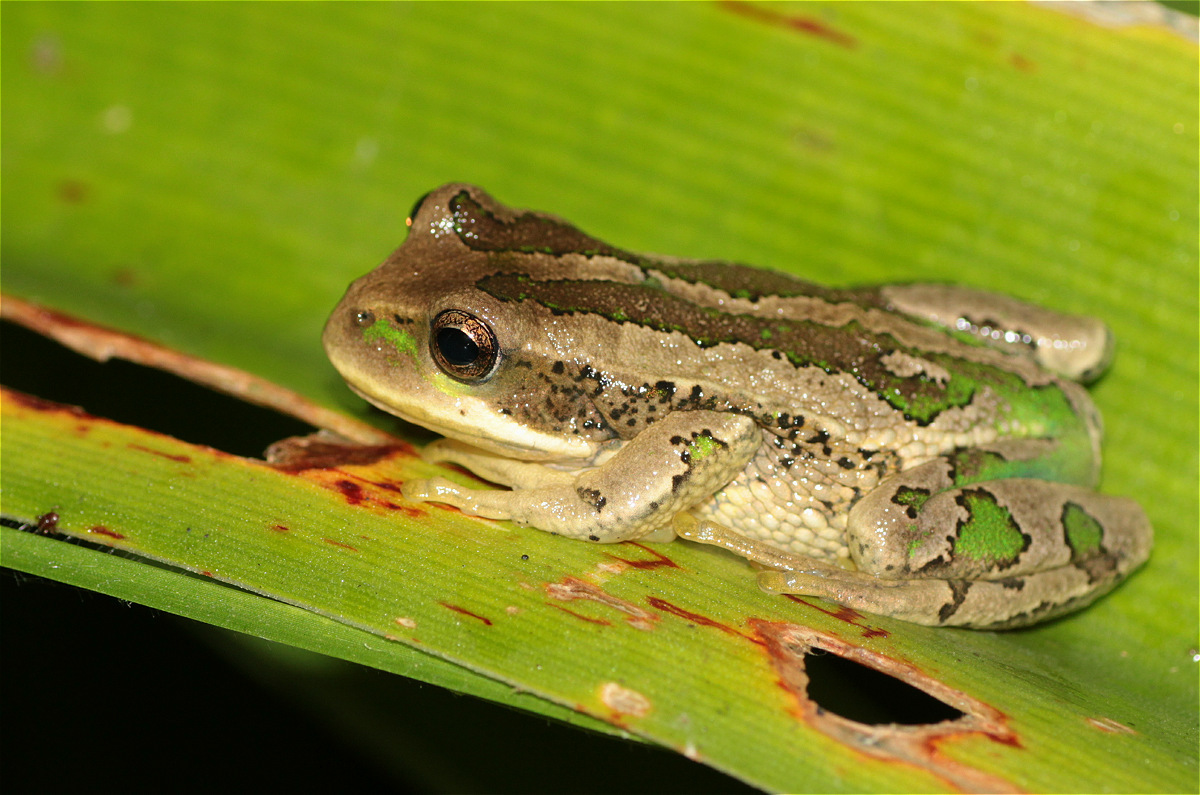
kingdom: Animalia
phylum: Chordata
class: Amphibia
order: Anura
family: Hemiphractidae
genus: Gastrotheca
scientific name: Gastrotheca cuencana
